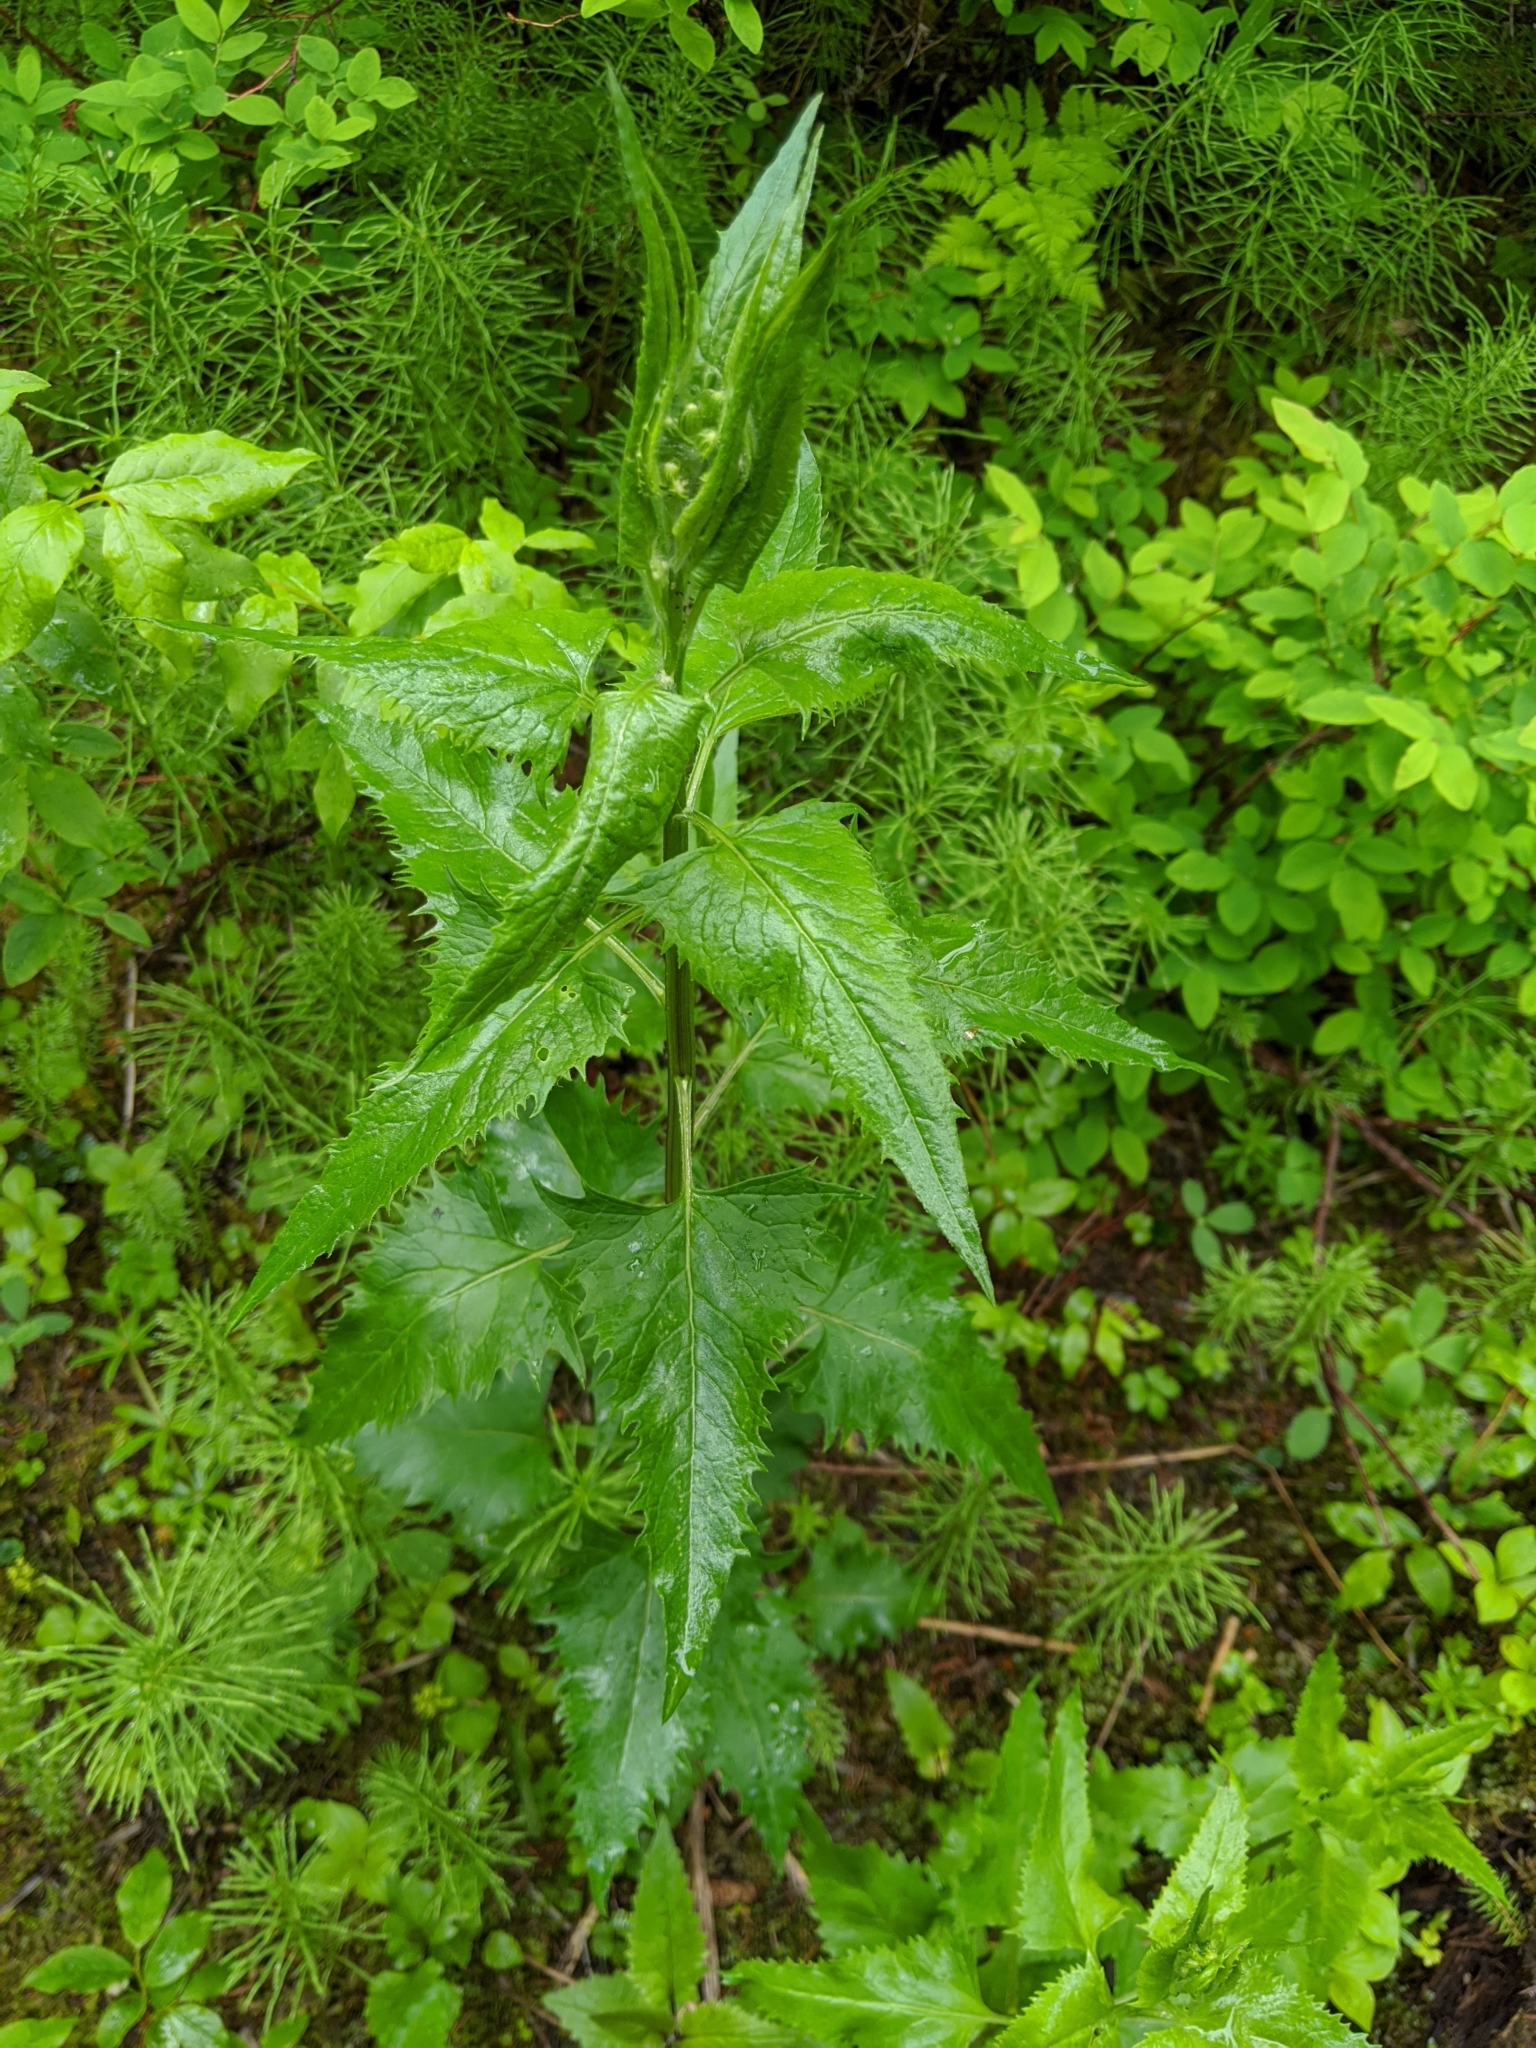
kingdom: Plantae
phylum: Tracheophyta
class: Magnoliopsida
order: Asterales
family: Asteraceae
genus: Senecio
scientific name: Senecio triangularis
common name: Arrowleaf butterweed
